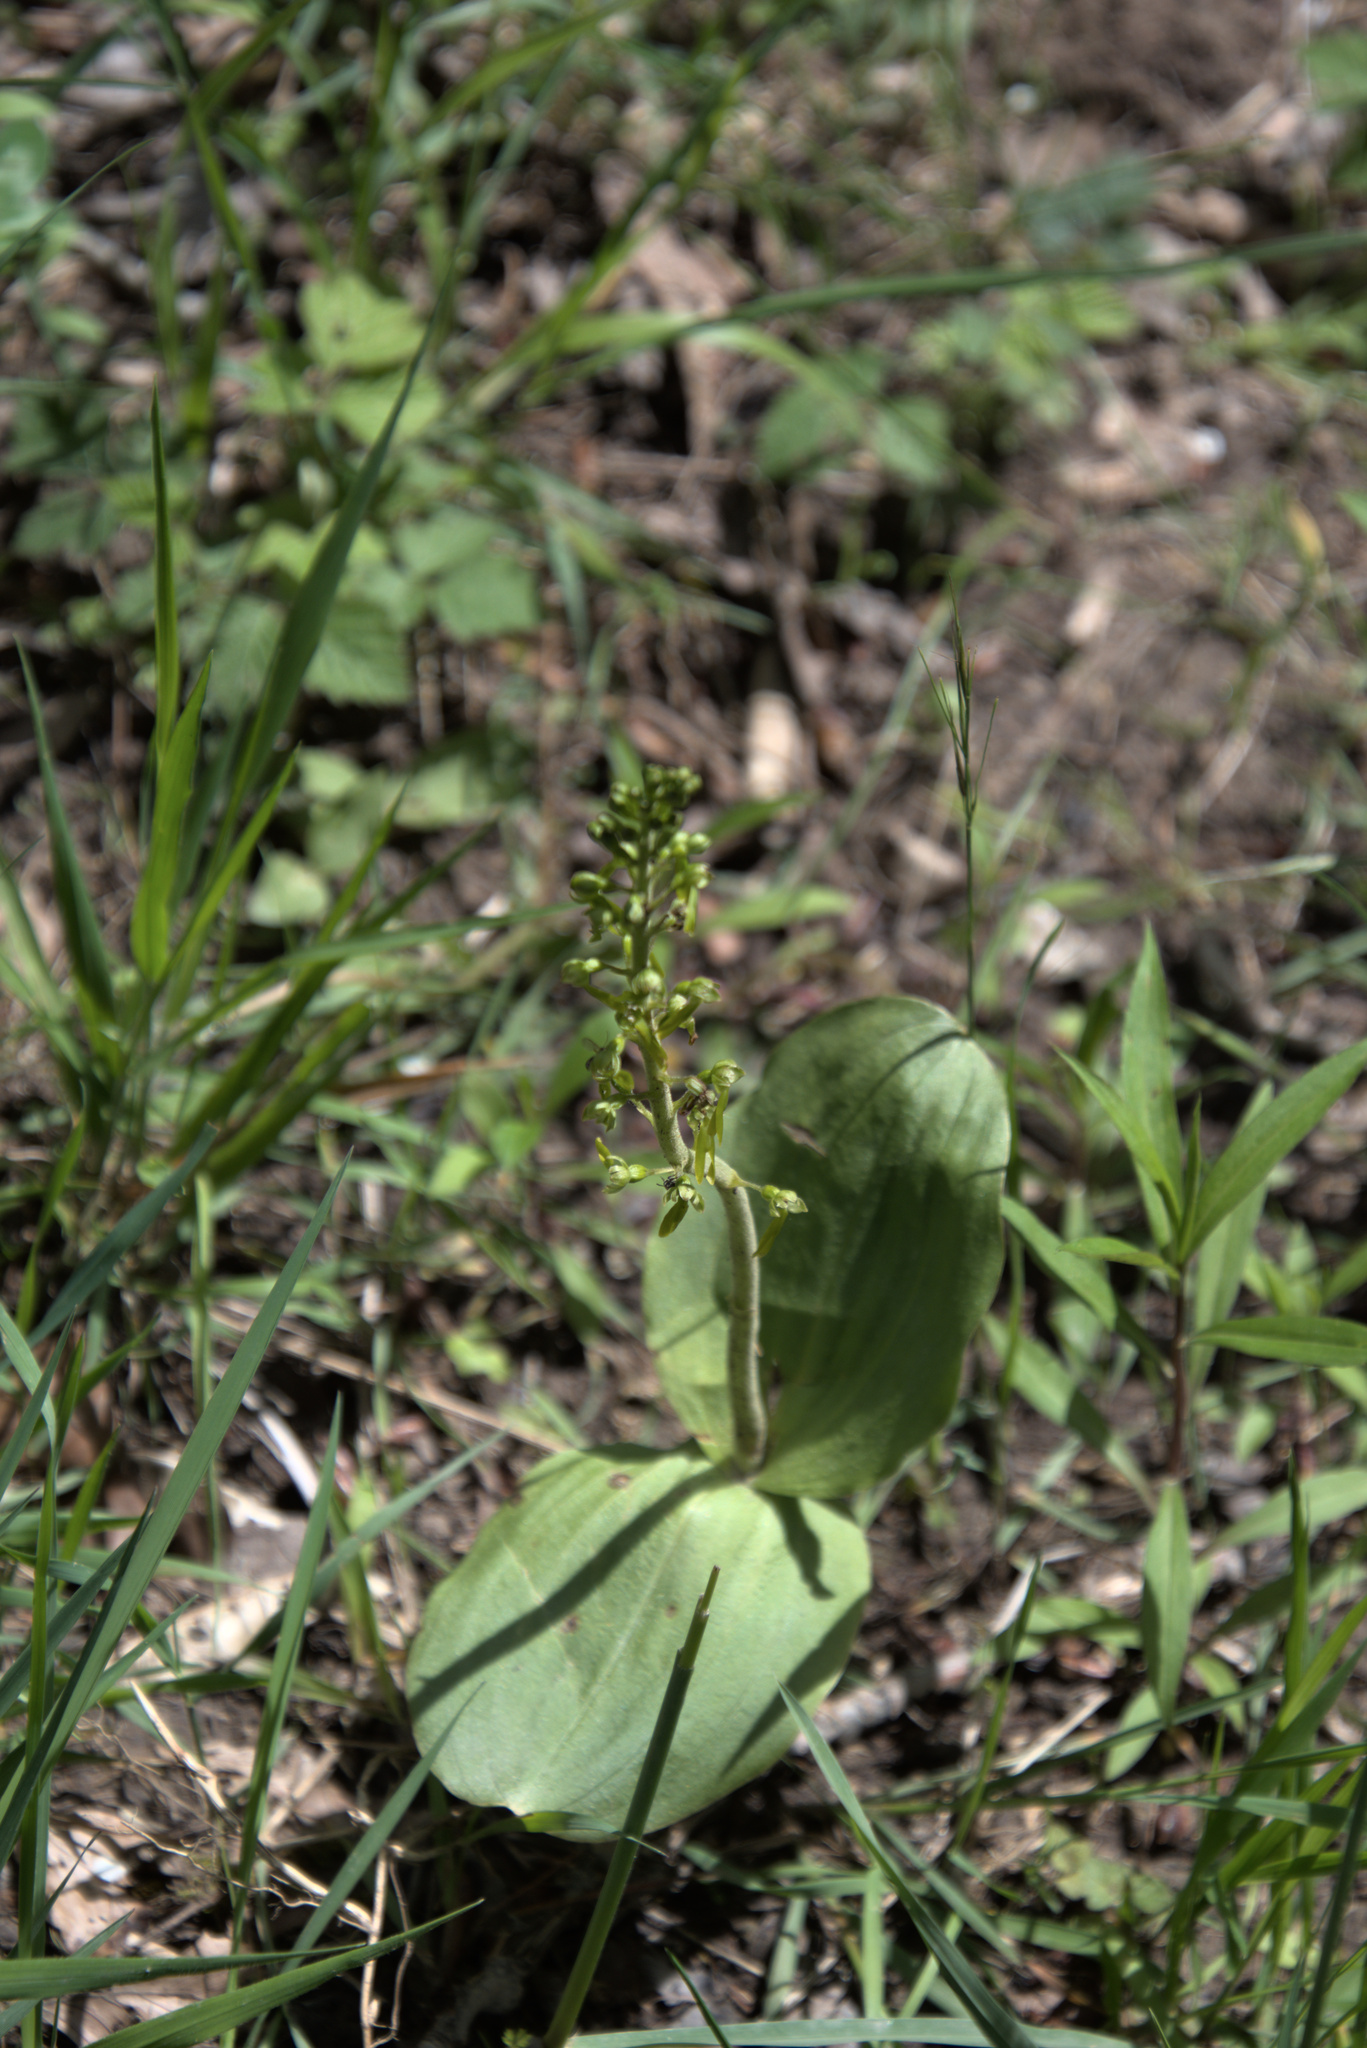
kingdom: Plantae
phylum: Tracheophyta
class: Liliopsida
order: Asparagales
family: Orchidaceae
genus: Neottia
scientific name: Neottia ovata
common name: Common twayblade
